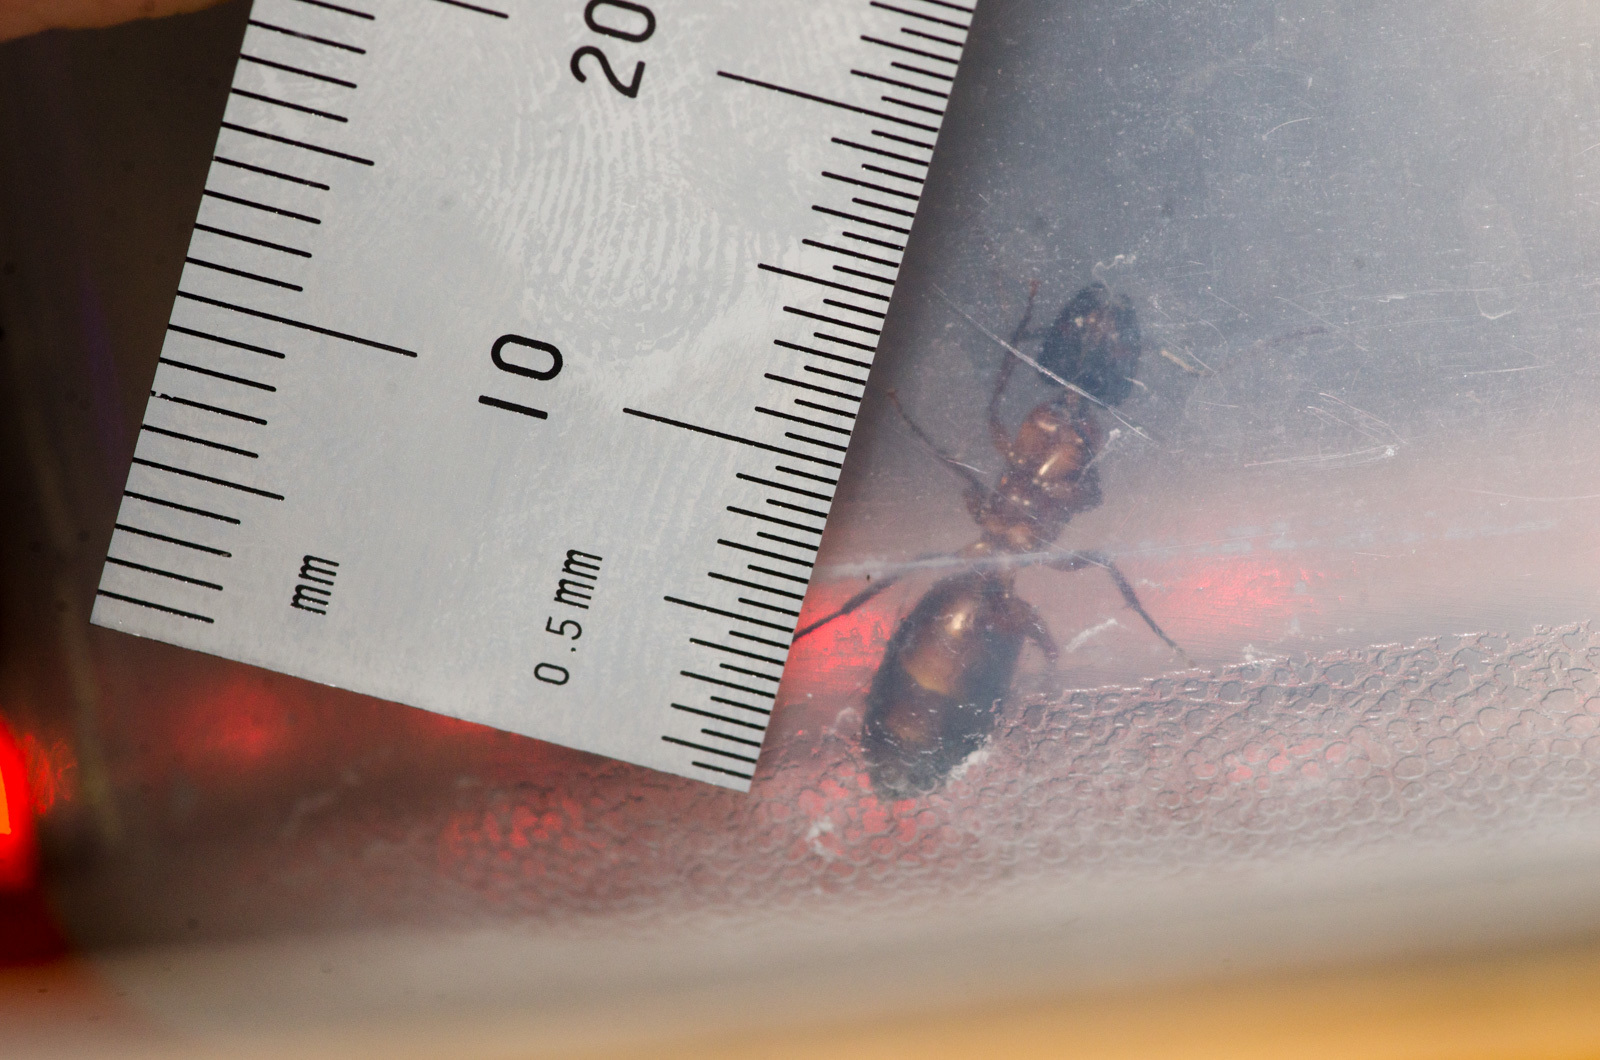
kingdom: Animalia
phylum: Arthropoda
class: Insecta
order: Hymenoptera
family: Formicidae
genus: Camponotus
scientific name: Camponotus texanus
